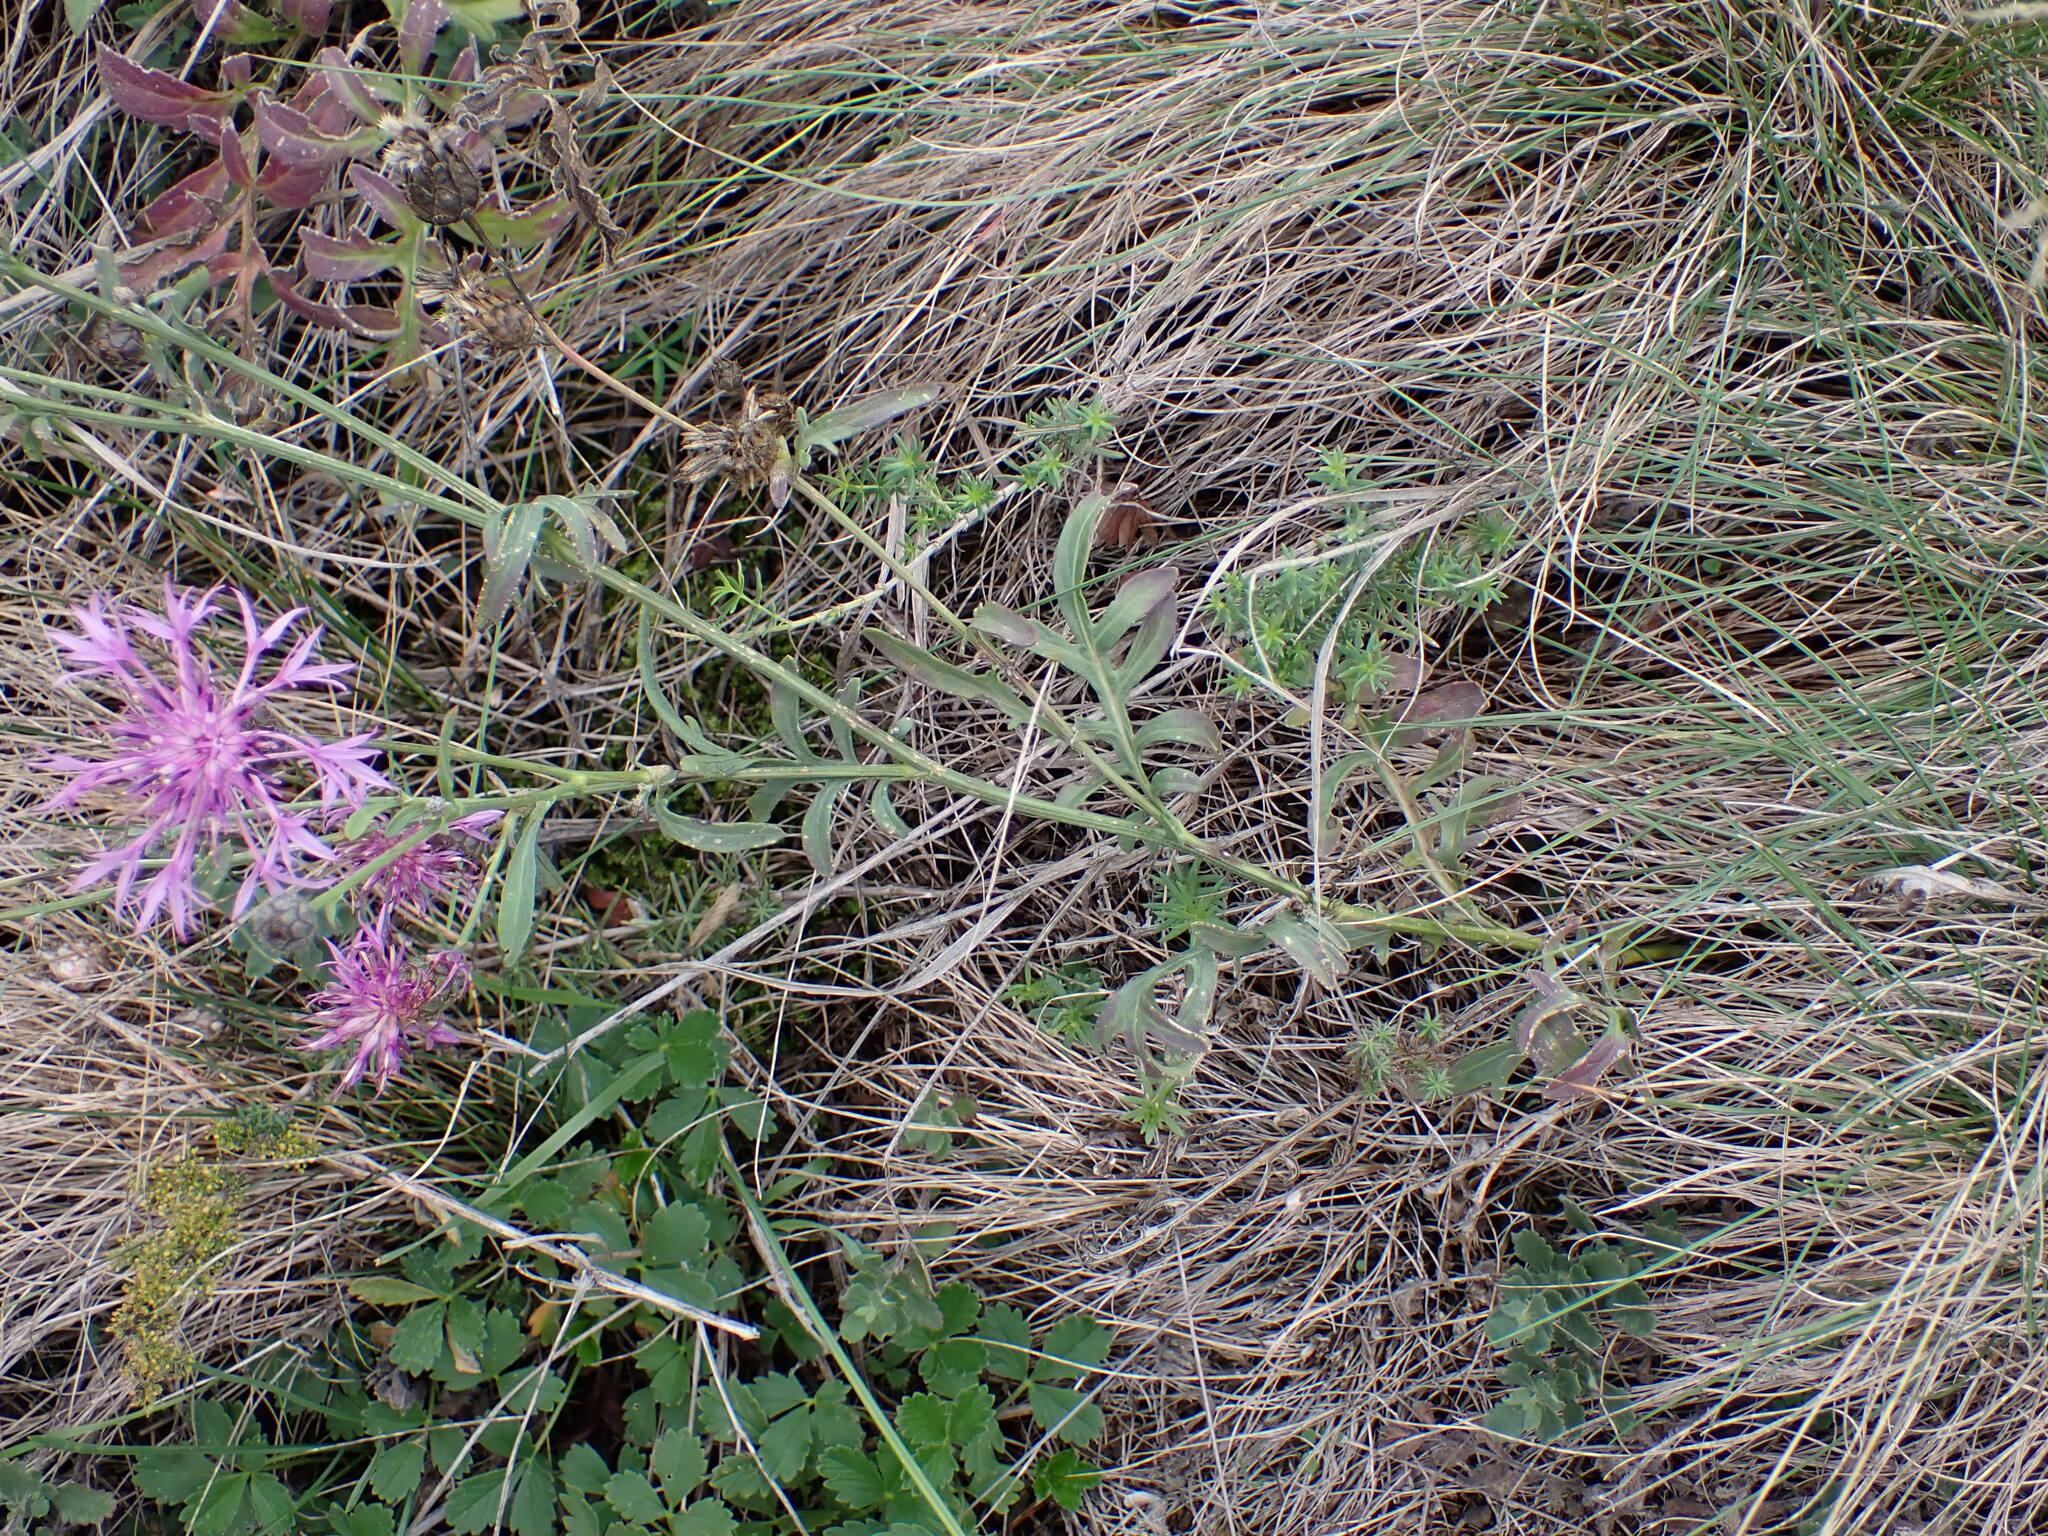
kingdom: Plantae
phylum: Tracheophyta
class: Magnoliopsida
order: Asterales
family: Asteraceae
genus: Centaurea
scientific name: Centaurea scabiosa
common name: Greater knapweed
